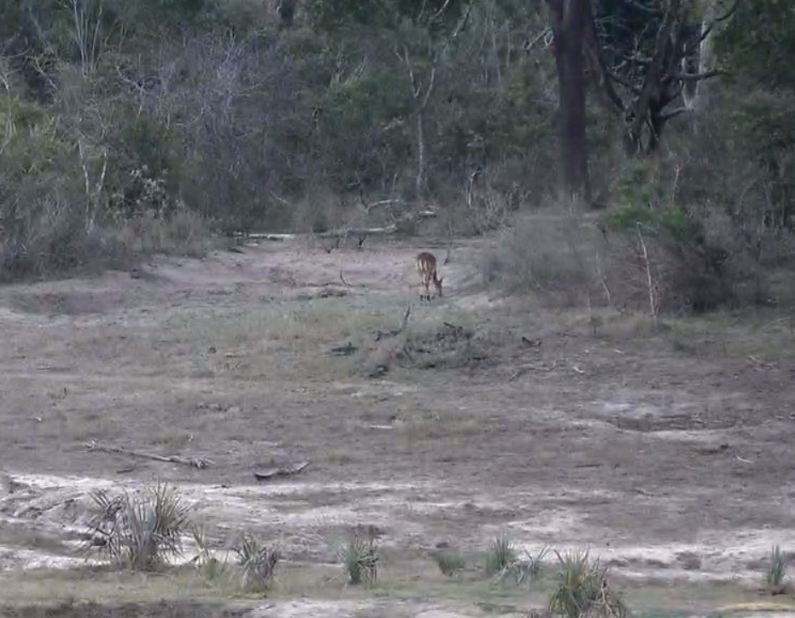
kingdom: Animalia
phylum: Chordata
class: Mammalia
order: Artiodactyla
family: Bovidae
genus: Aepyceros
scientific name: Aepyceros melampus
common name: Impala
